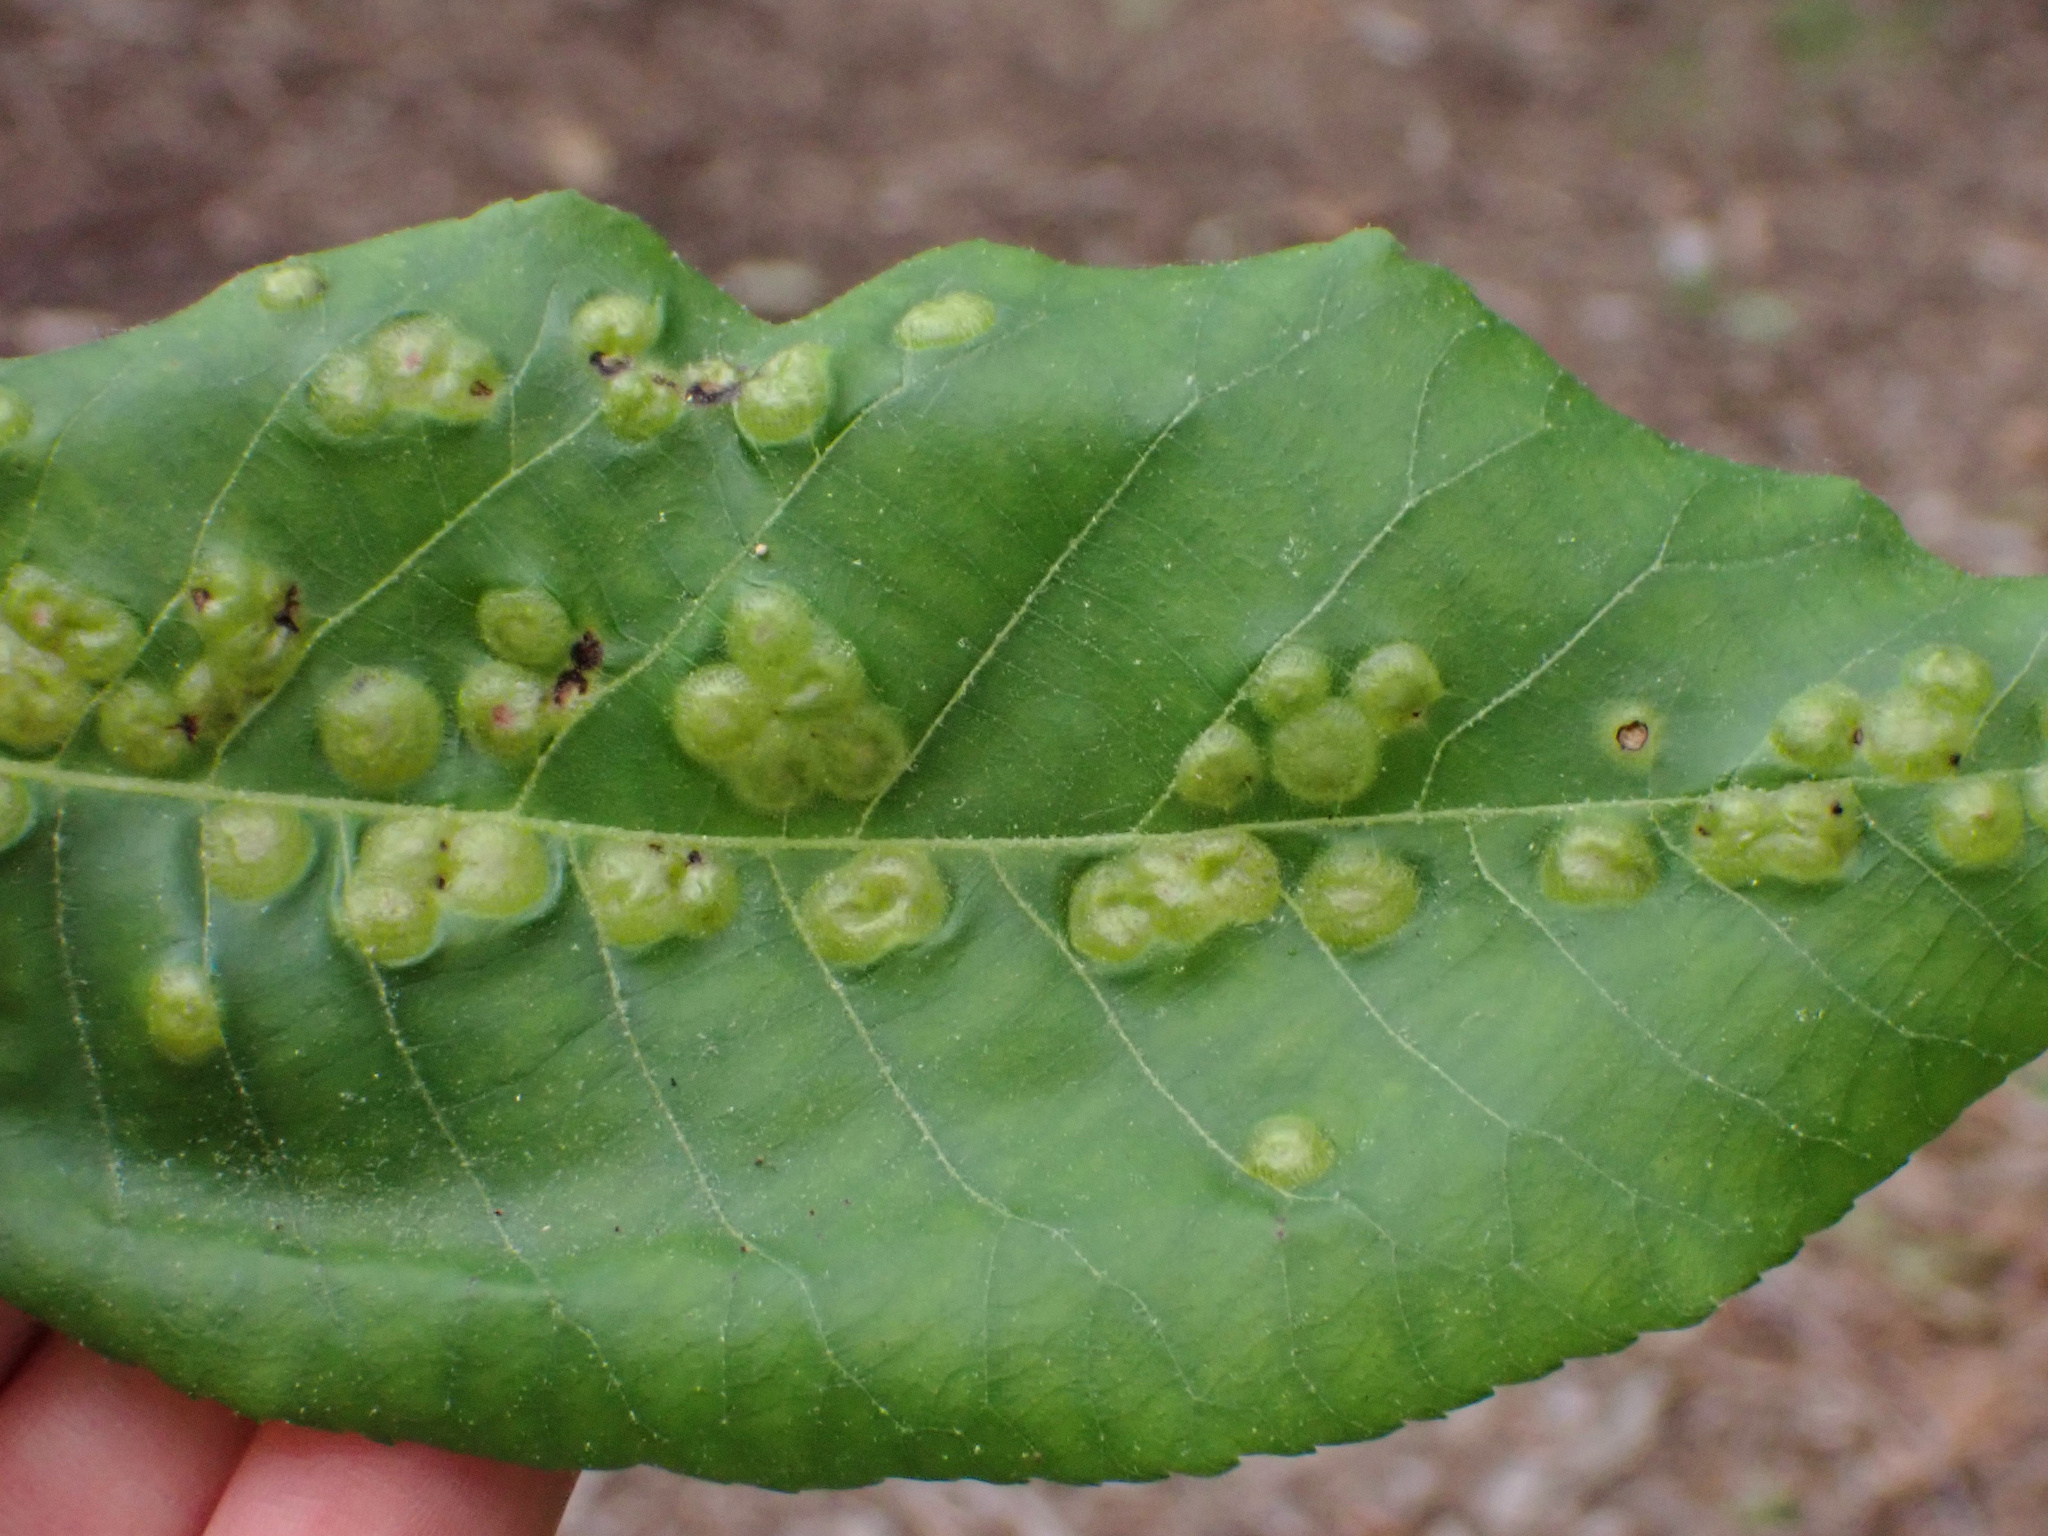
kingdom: Animalia
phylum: Arthropoda
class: Insecta
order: Hemiptera
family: Phylloxeridae
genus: Phylloxera
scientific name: Phylloxera foveola
